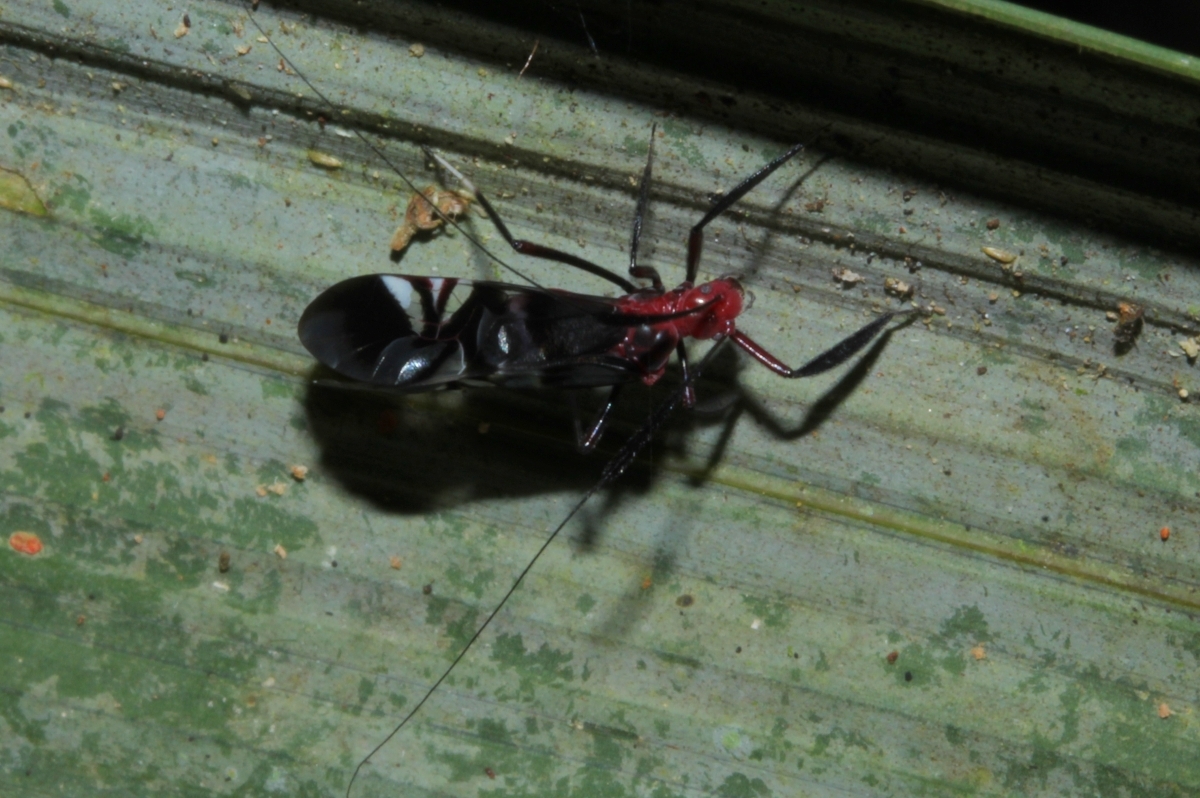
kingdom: Animalia
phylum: Arthropoda
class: Insecta
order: Psocodea
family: Psocidae
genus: Thyrsophorus
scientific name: Thyrsophorus
